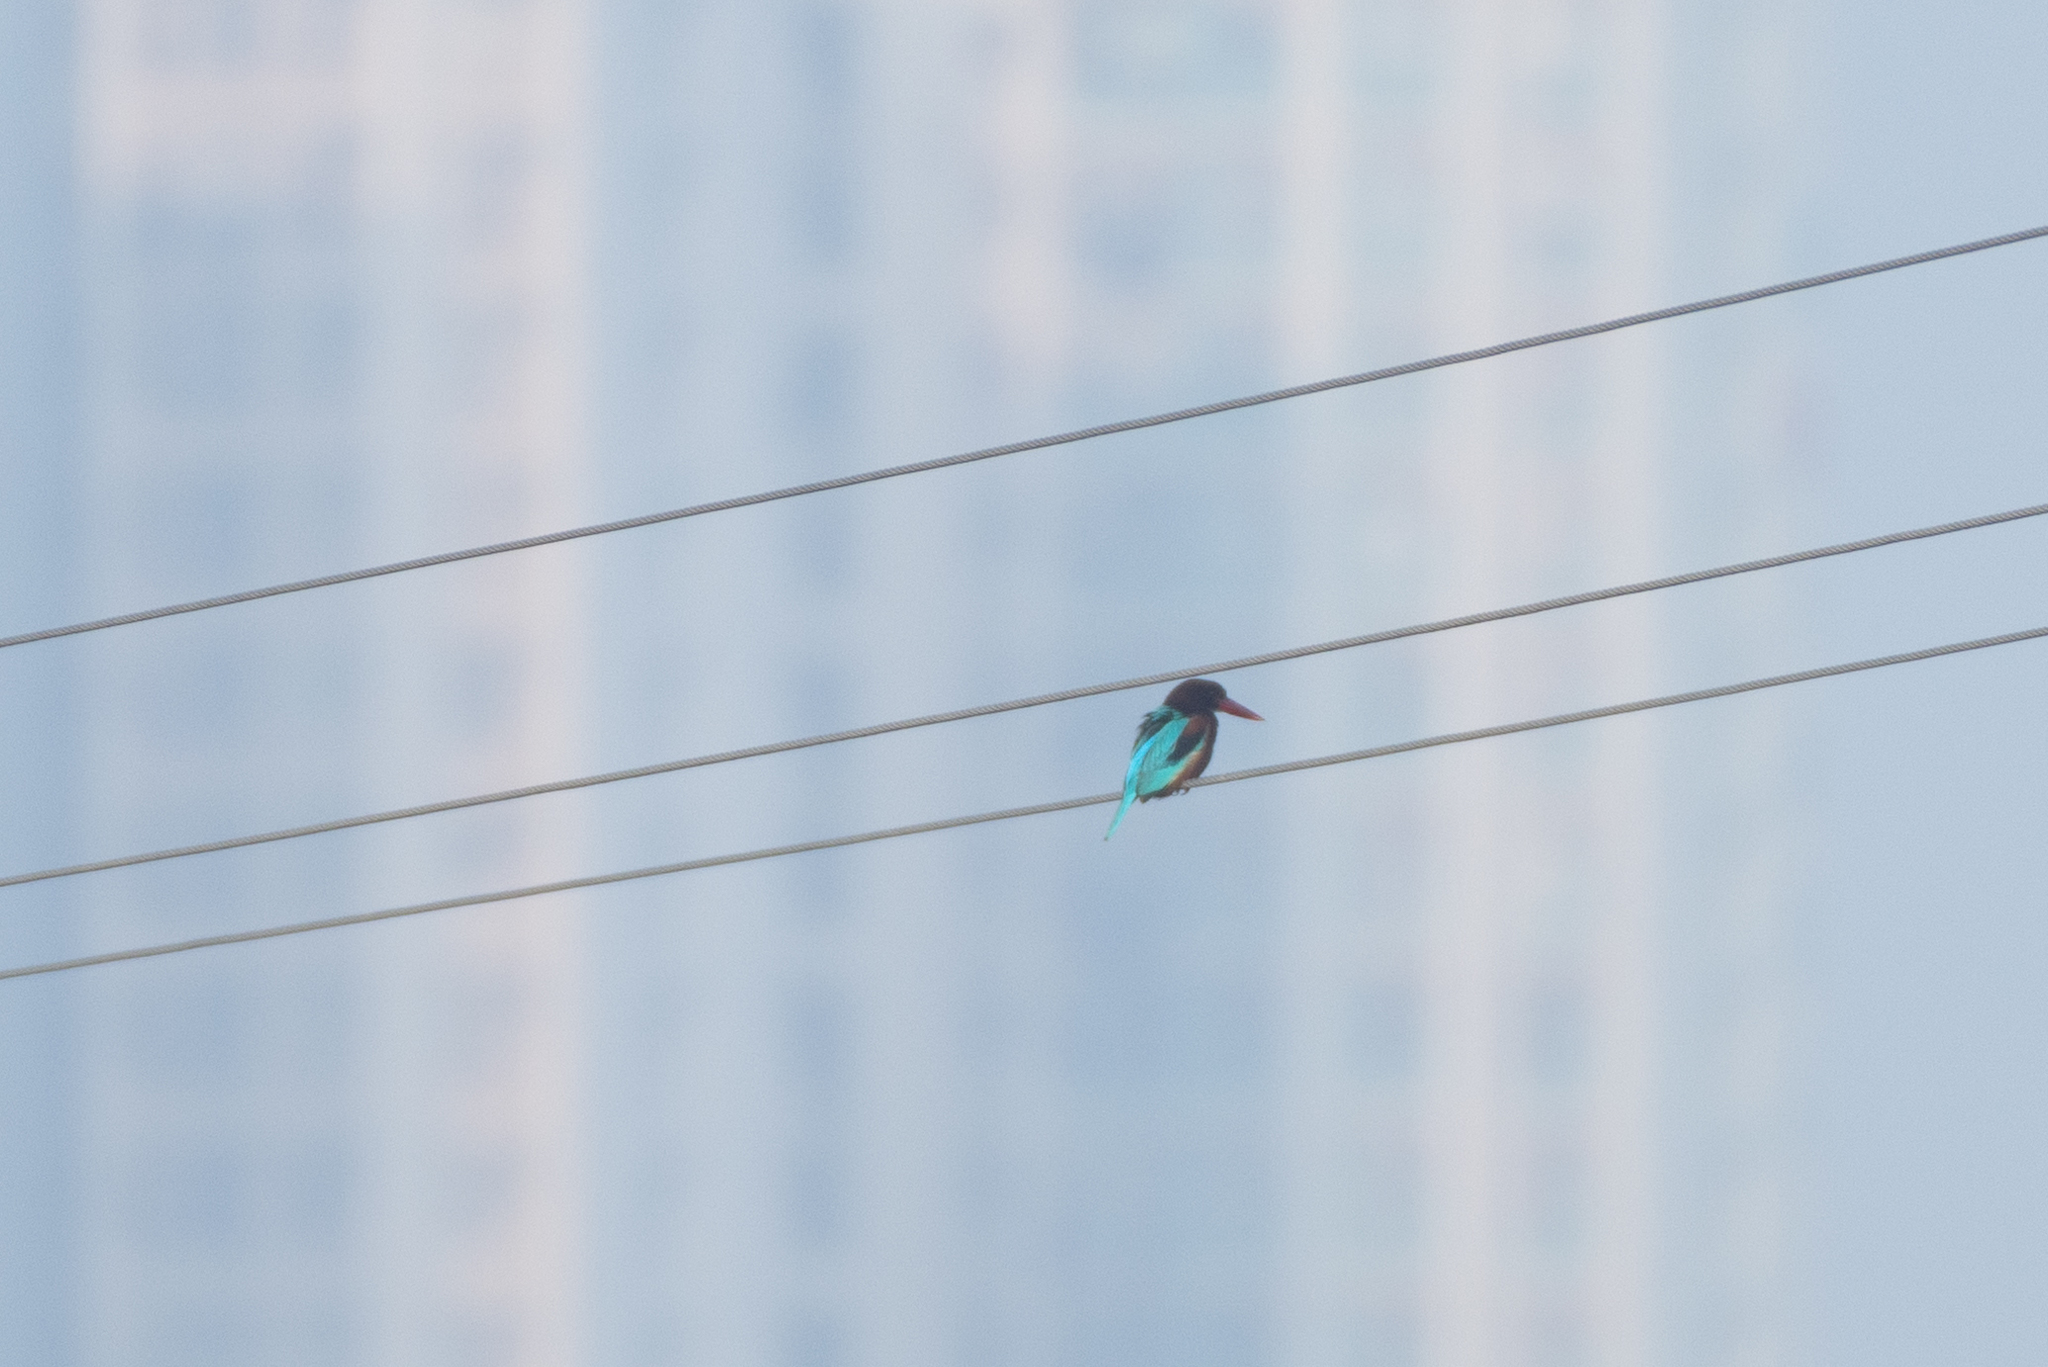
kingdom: Animalia
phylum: Chordata
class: Aves
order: Coraciiformes
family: Alcedinidae
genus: Halcyon
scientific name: Halcyon smyrnensis
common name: White-throated kingfisher
